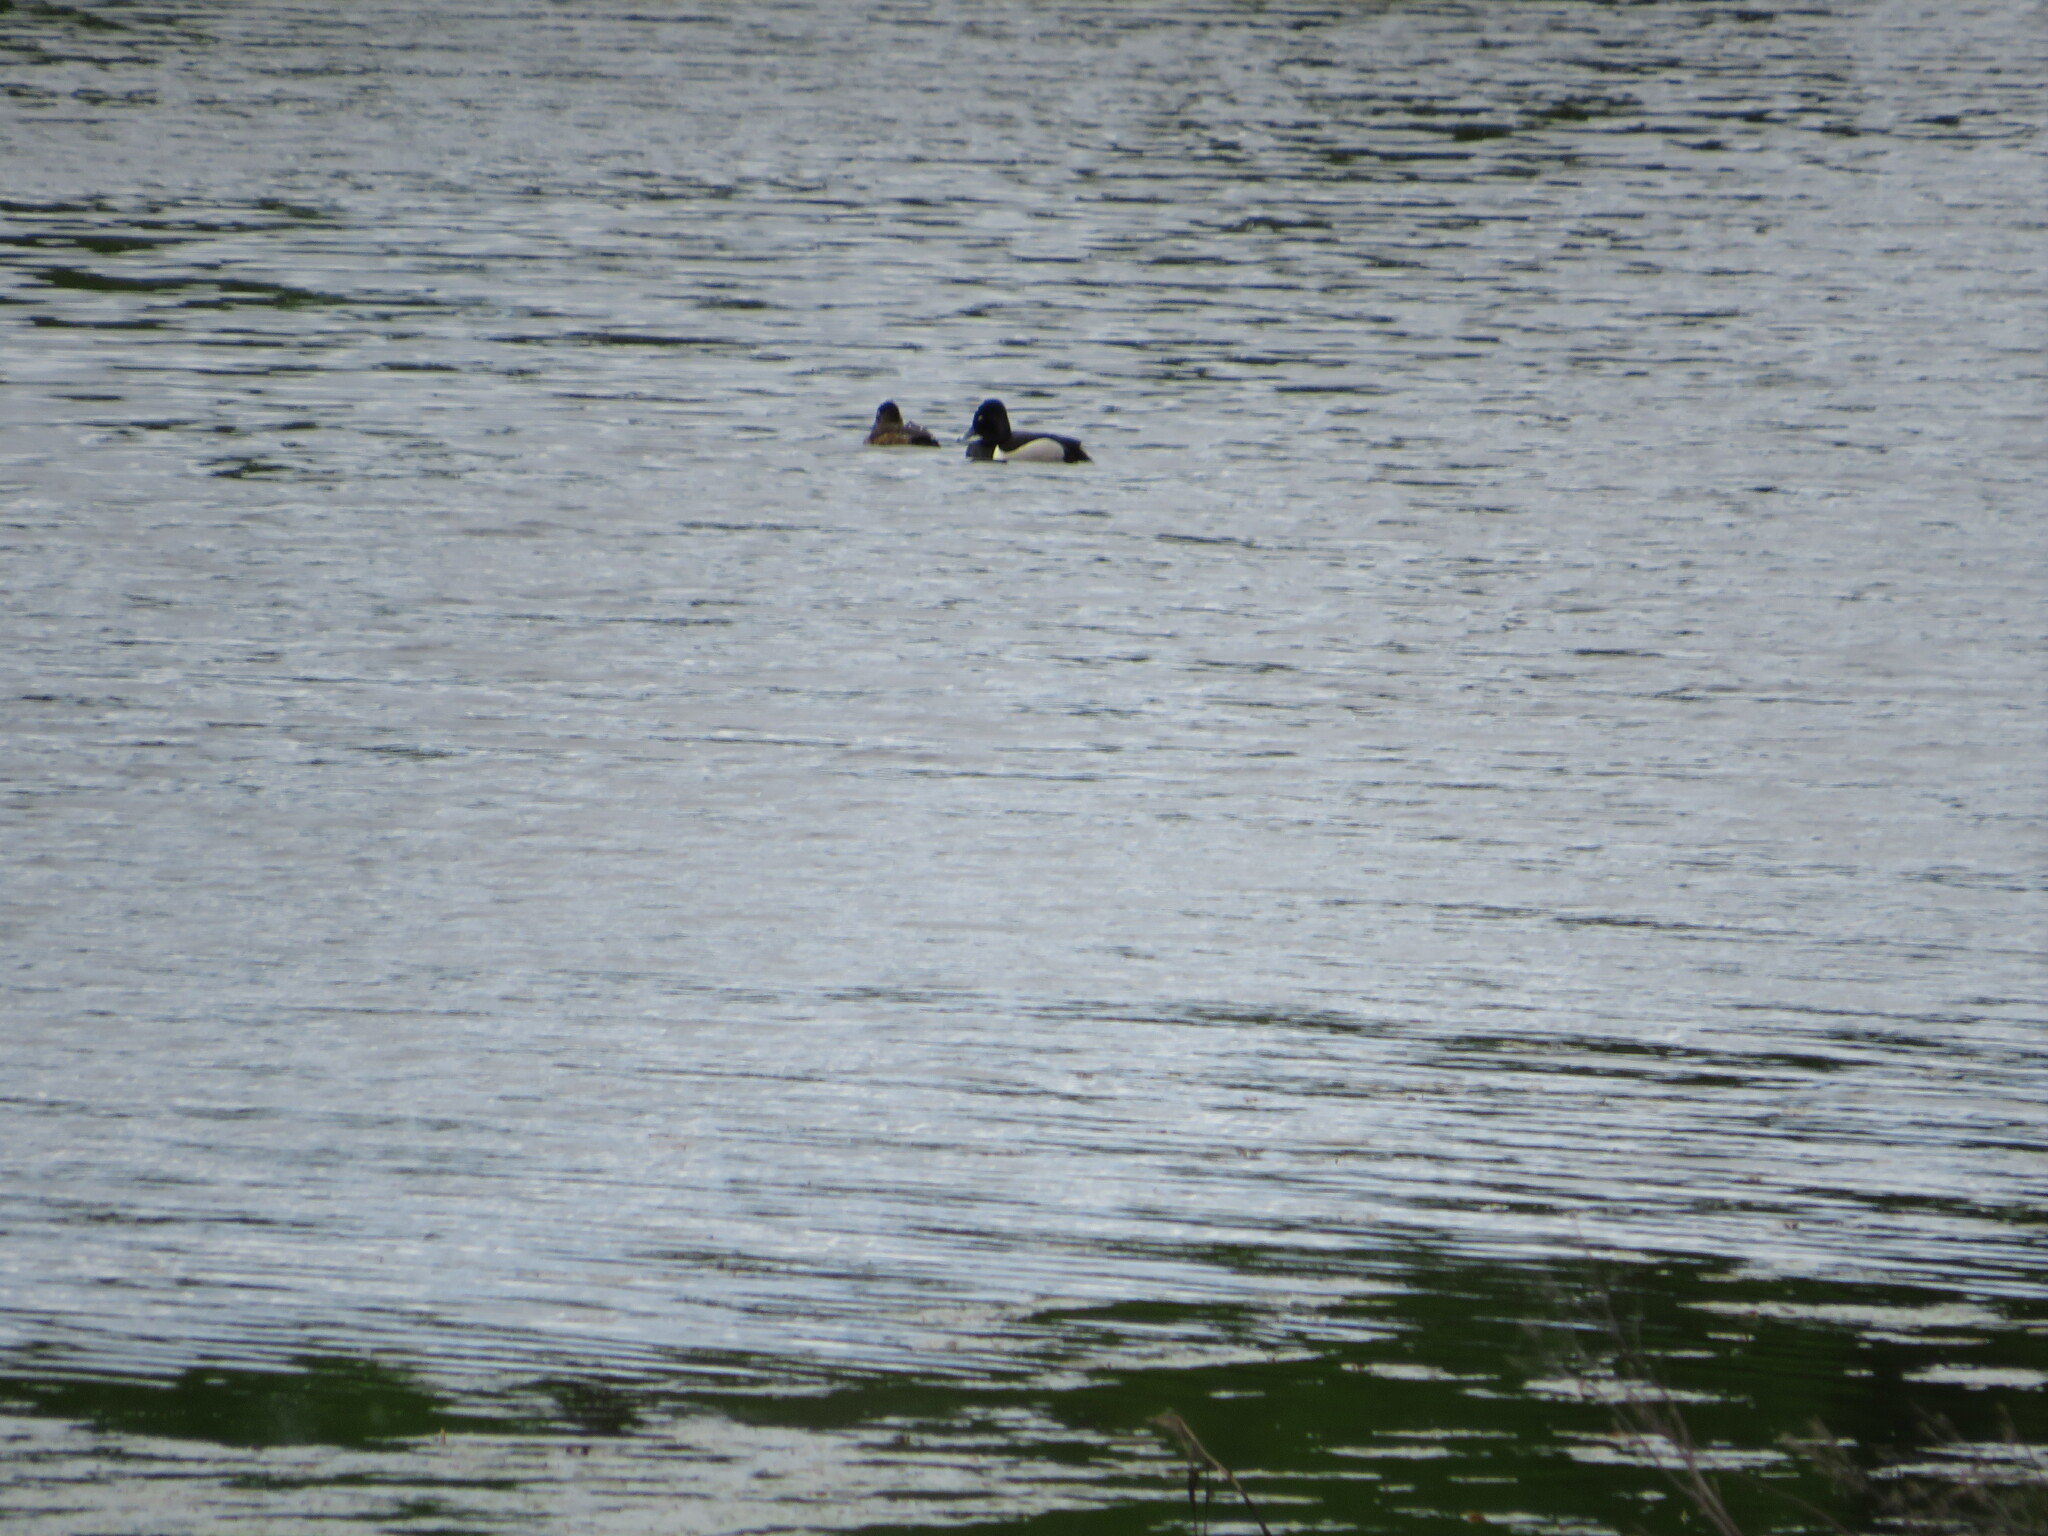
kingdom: Animalia
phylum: Chordata
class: Aves
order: Anseriformes
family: Anatidae
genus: Aythya
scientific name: Aythya collaris
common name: Ring-necked duck
